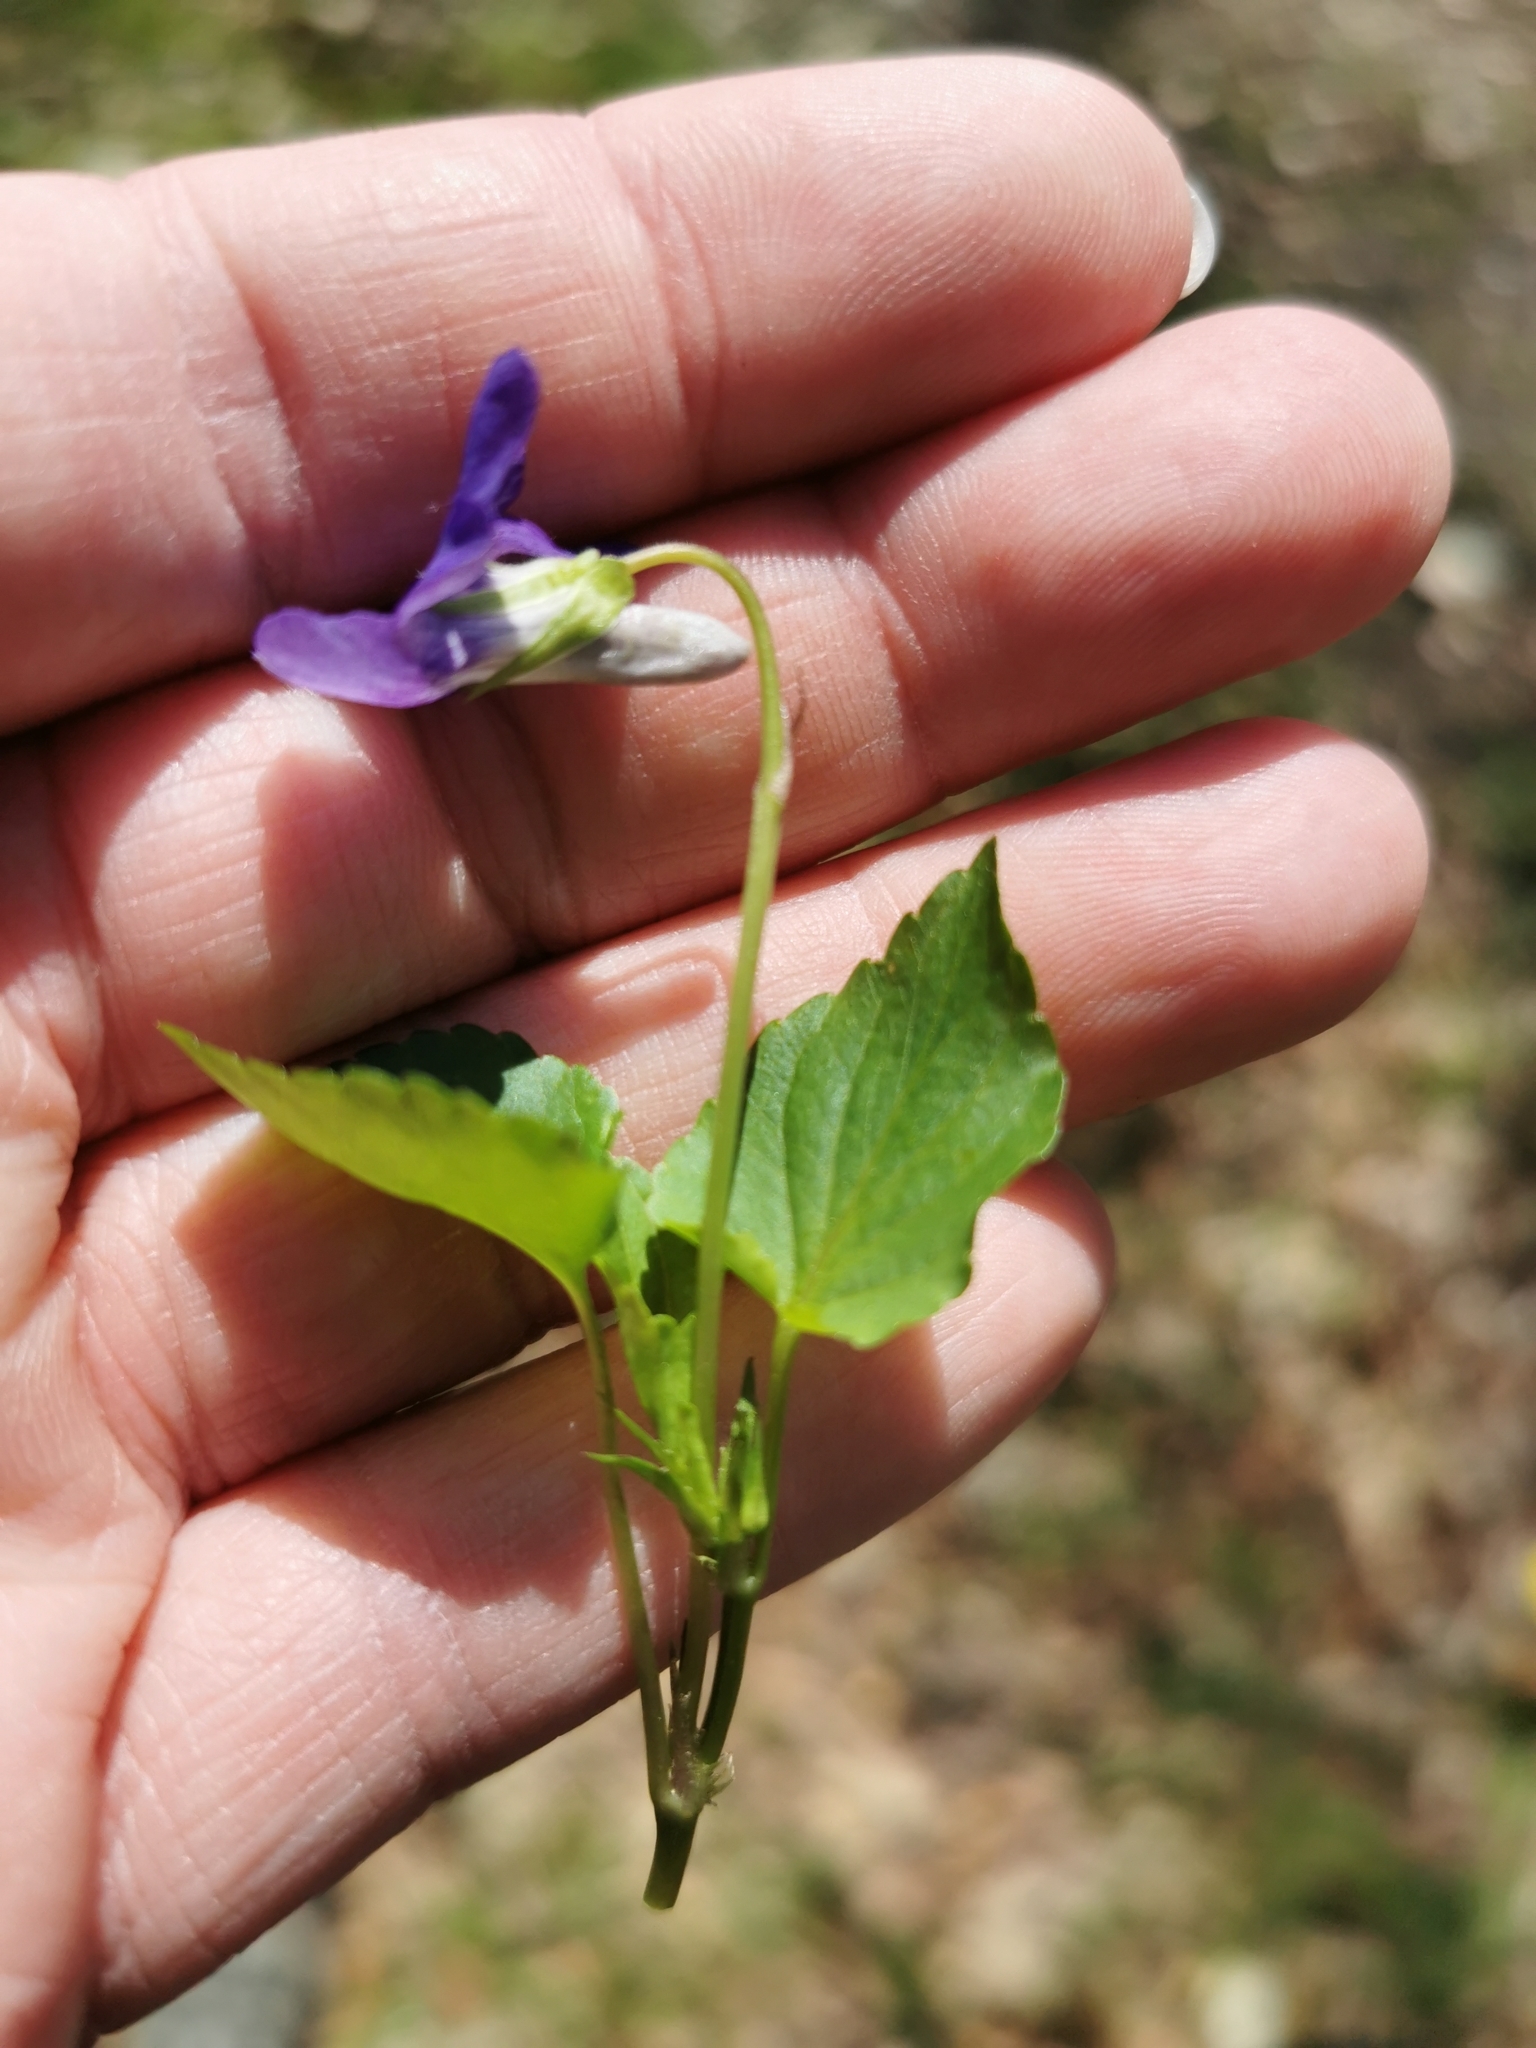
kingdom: Plantae
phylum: Tracheophyta
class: Magnoliopsida
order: Malpighiales
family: Violaceae
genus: Viola
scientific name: Viola riviniana
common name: Common dog-violet
